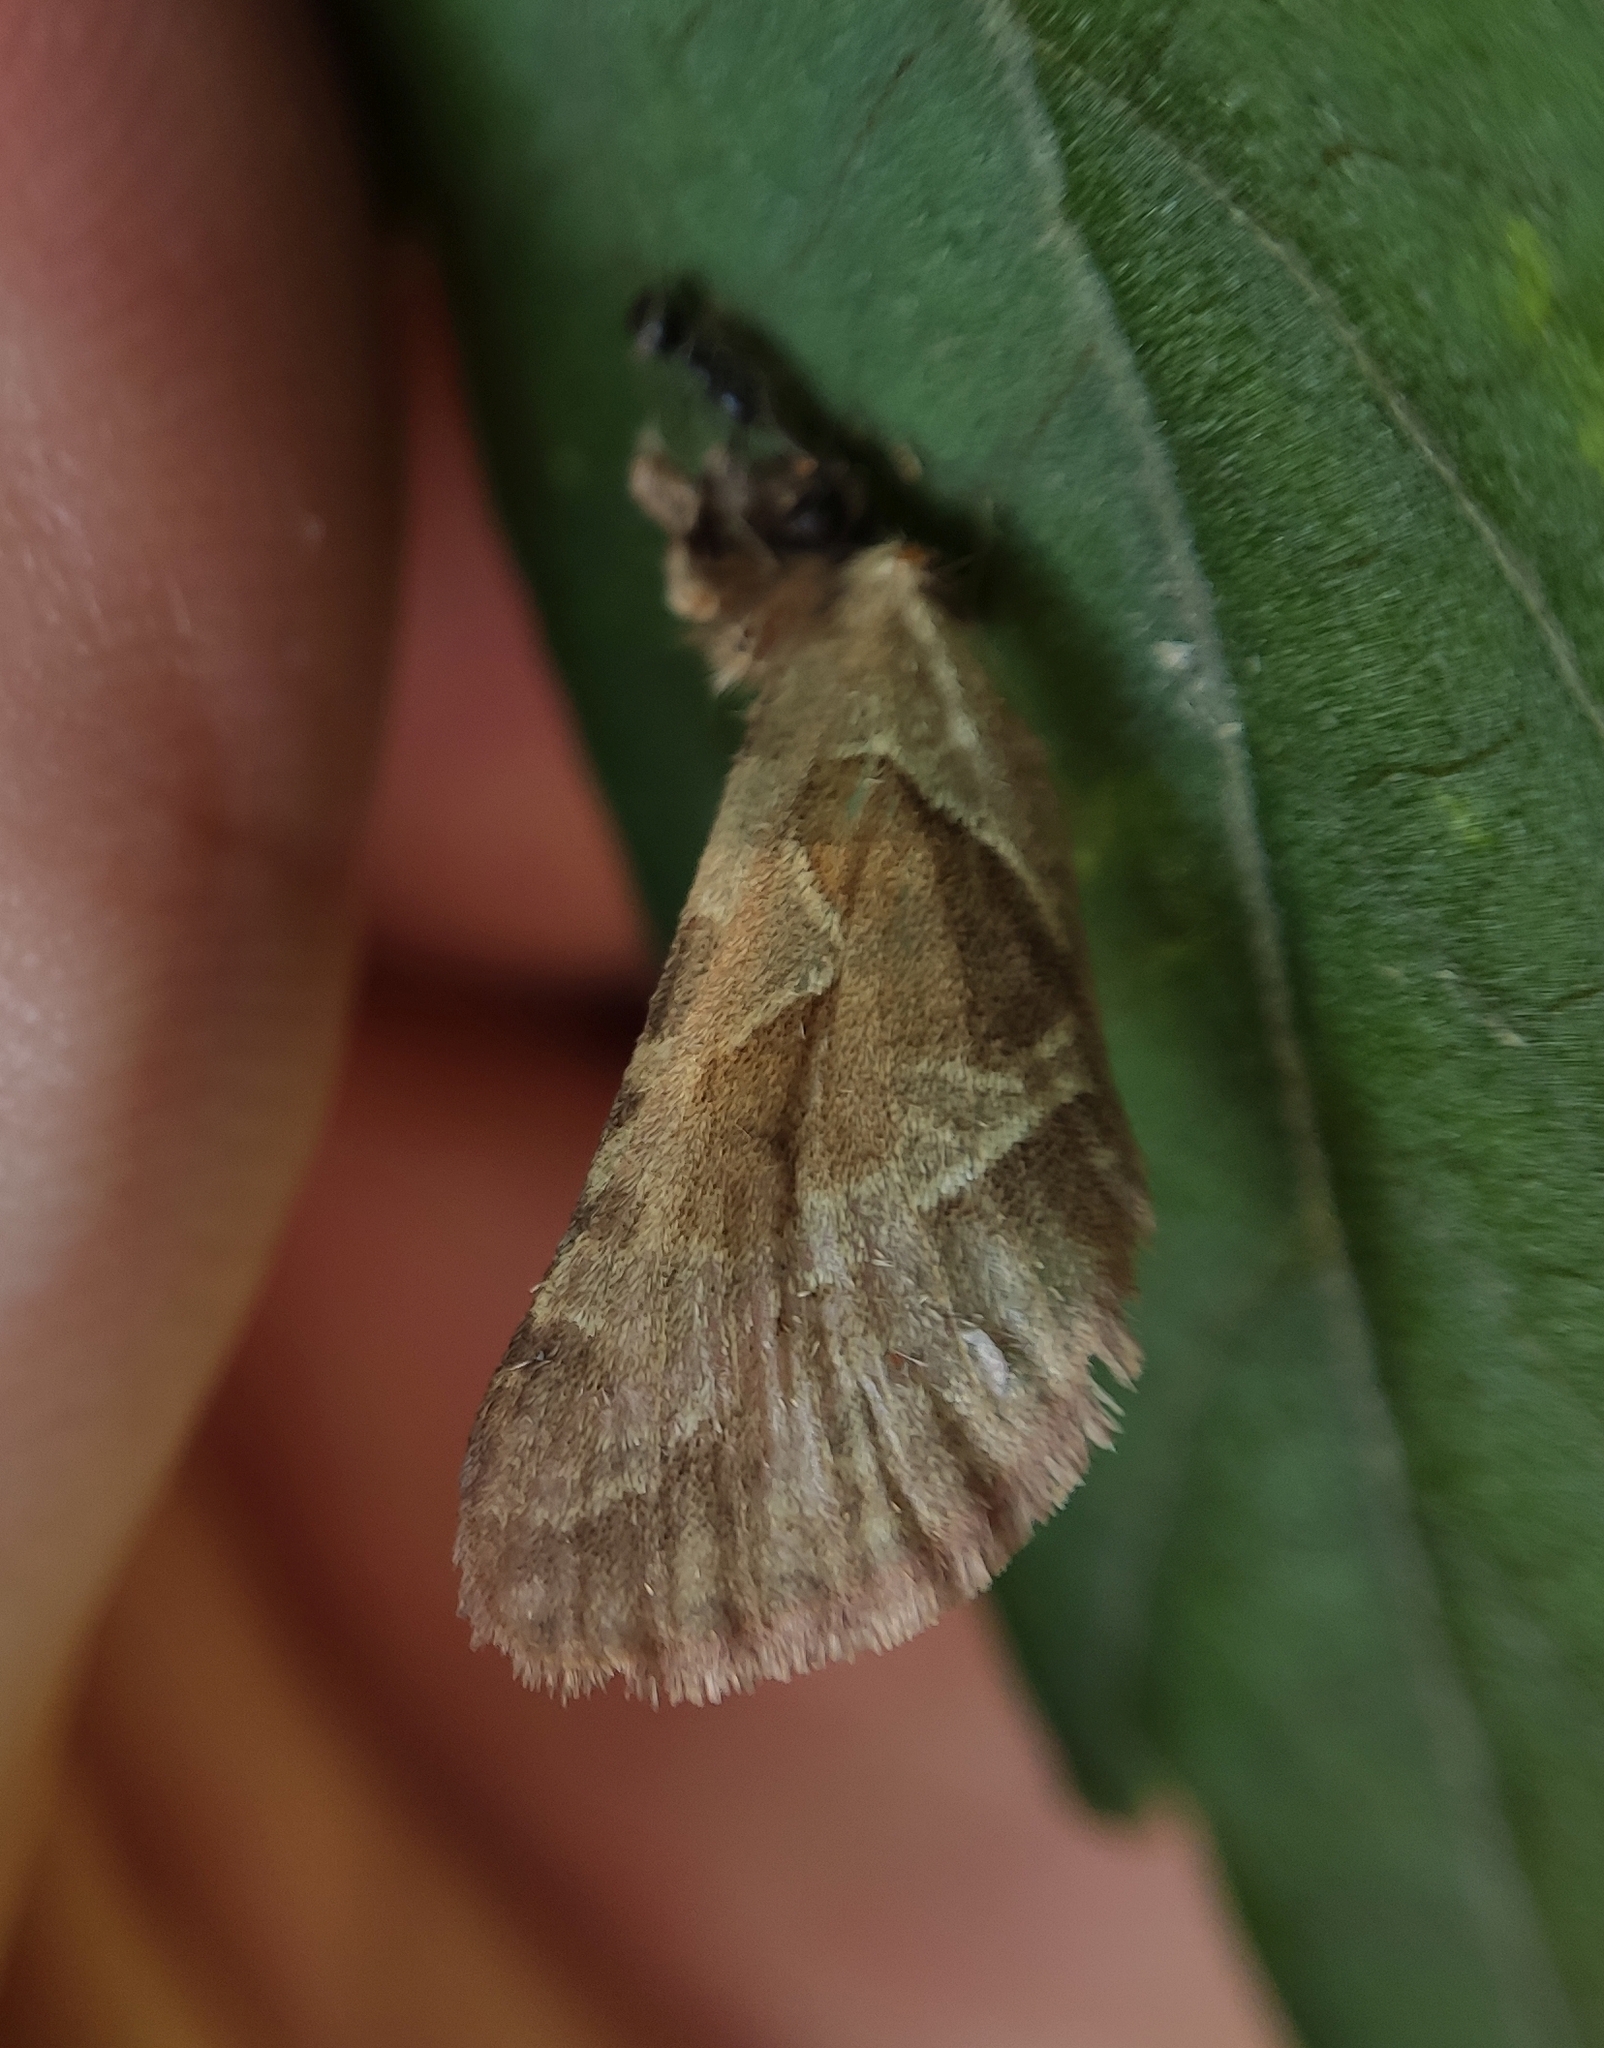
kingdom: Animalia
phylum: Arthropoda
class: Insecta
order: Lepidoptera
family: Hepialidae
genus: Triodia
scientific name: Triodia sylvina
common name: Orange swift
